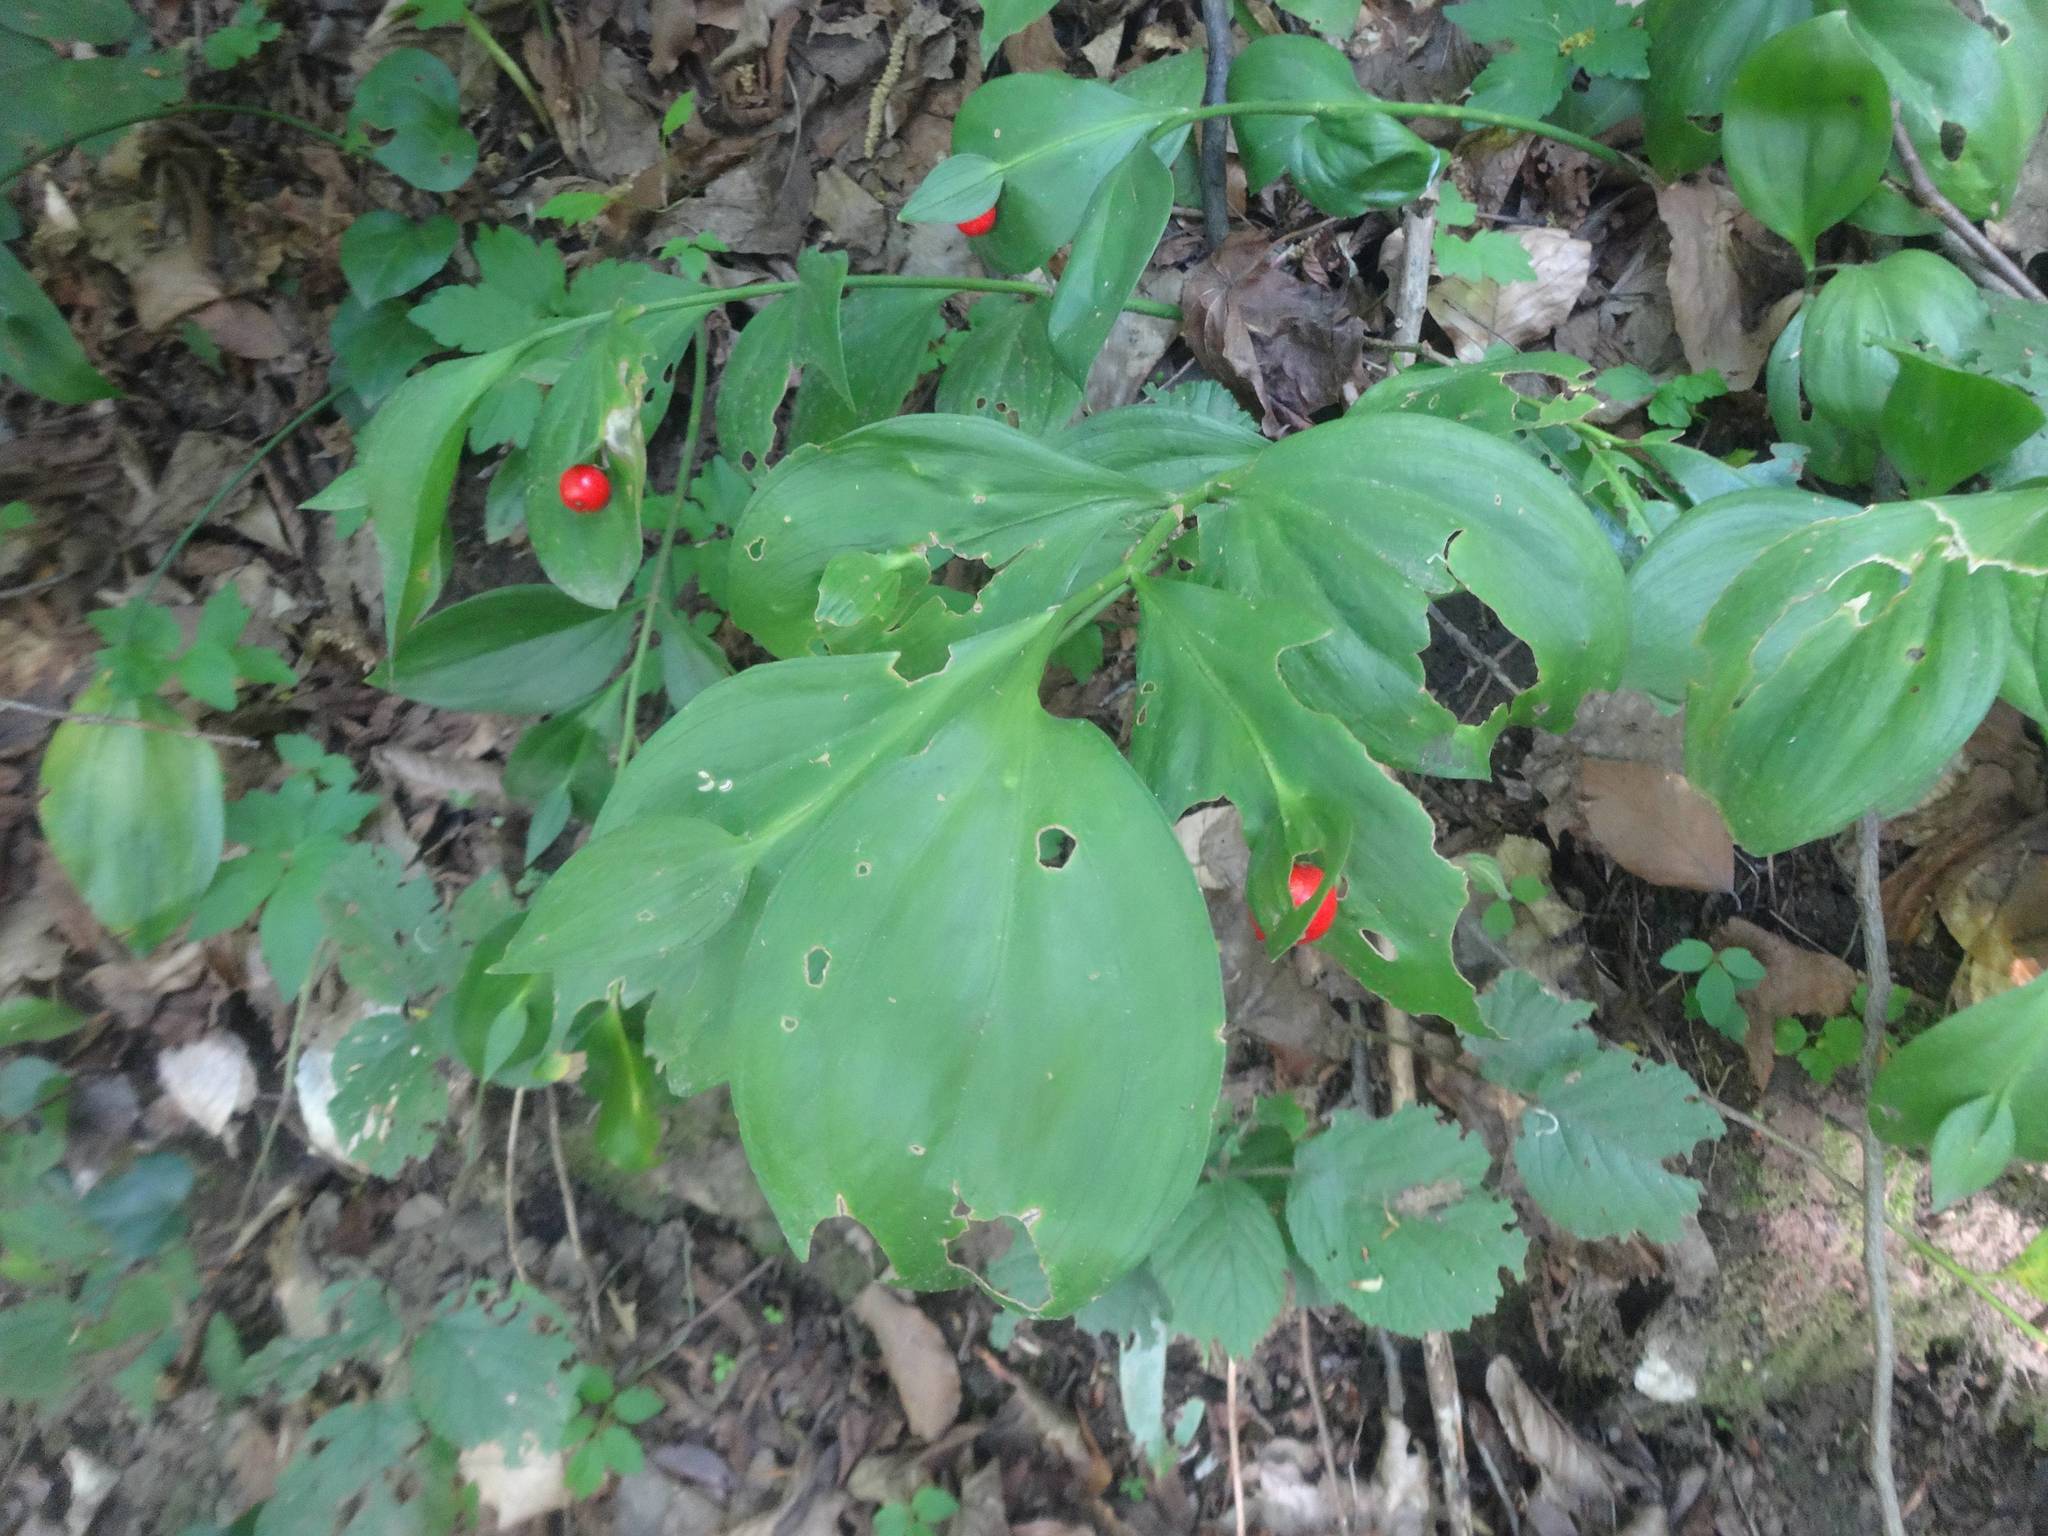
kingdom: Plantae
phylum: Tracheophyta
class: Liliopsida
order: Asparagales
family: Asparagaceae
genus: Ruscus
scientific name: Ruscus hypoglossum
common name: Spineless butcher's-broom
